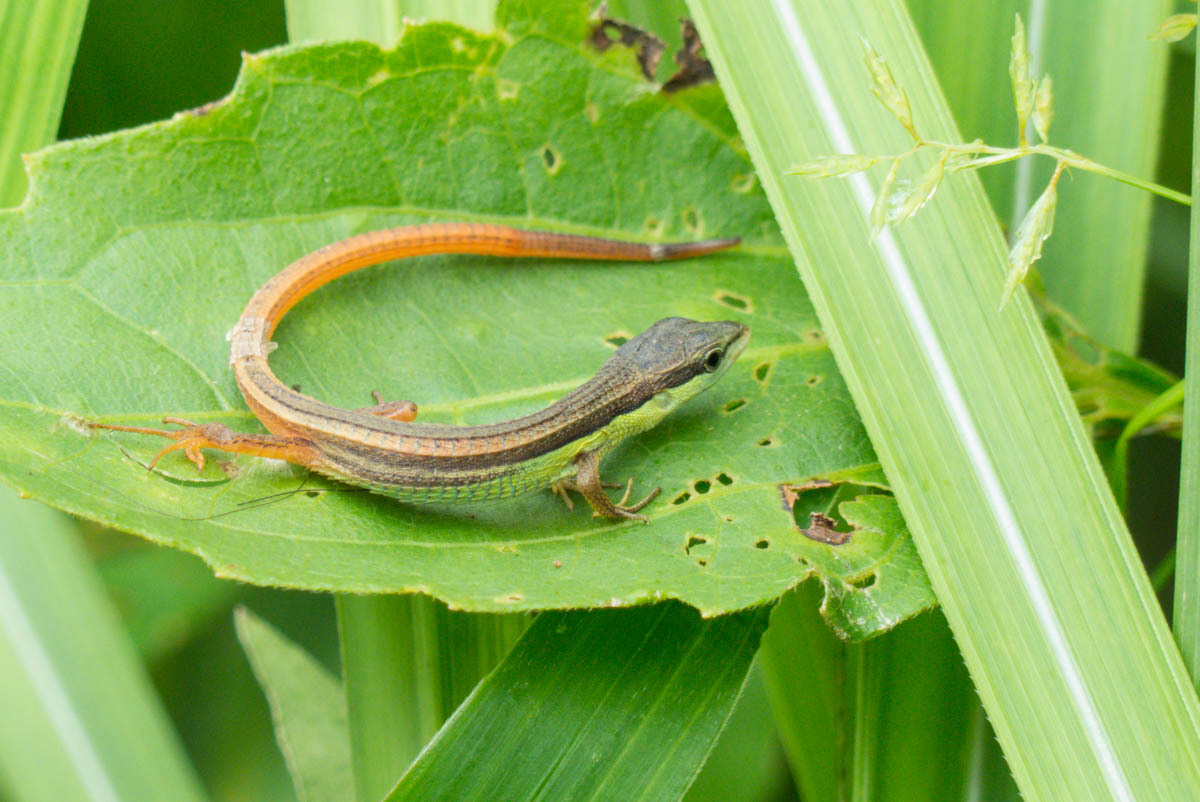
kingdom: Animalia
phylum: Chordata
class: Squamata
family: Lacertidae
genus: Takydromus
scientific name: Takydromus sexlineatus
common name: Asian grass lizard
